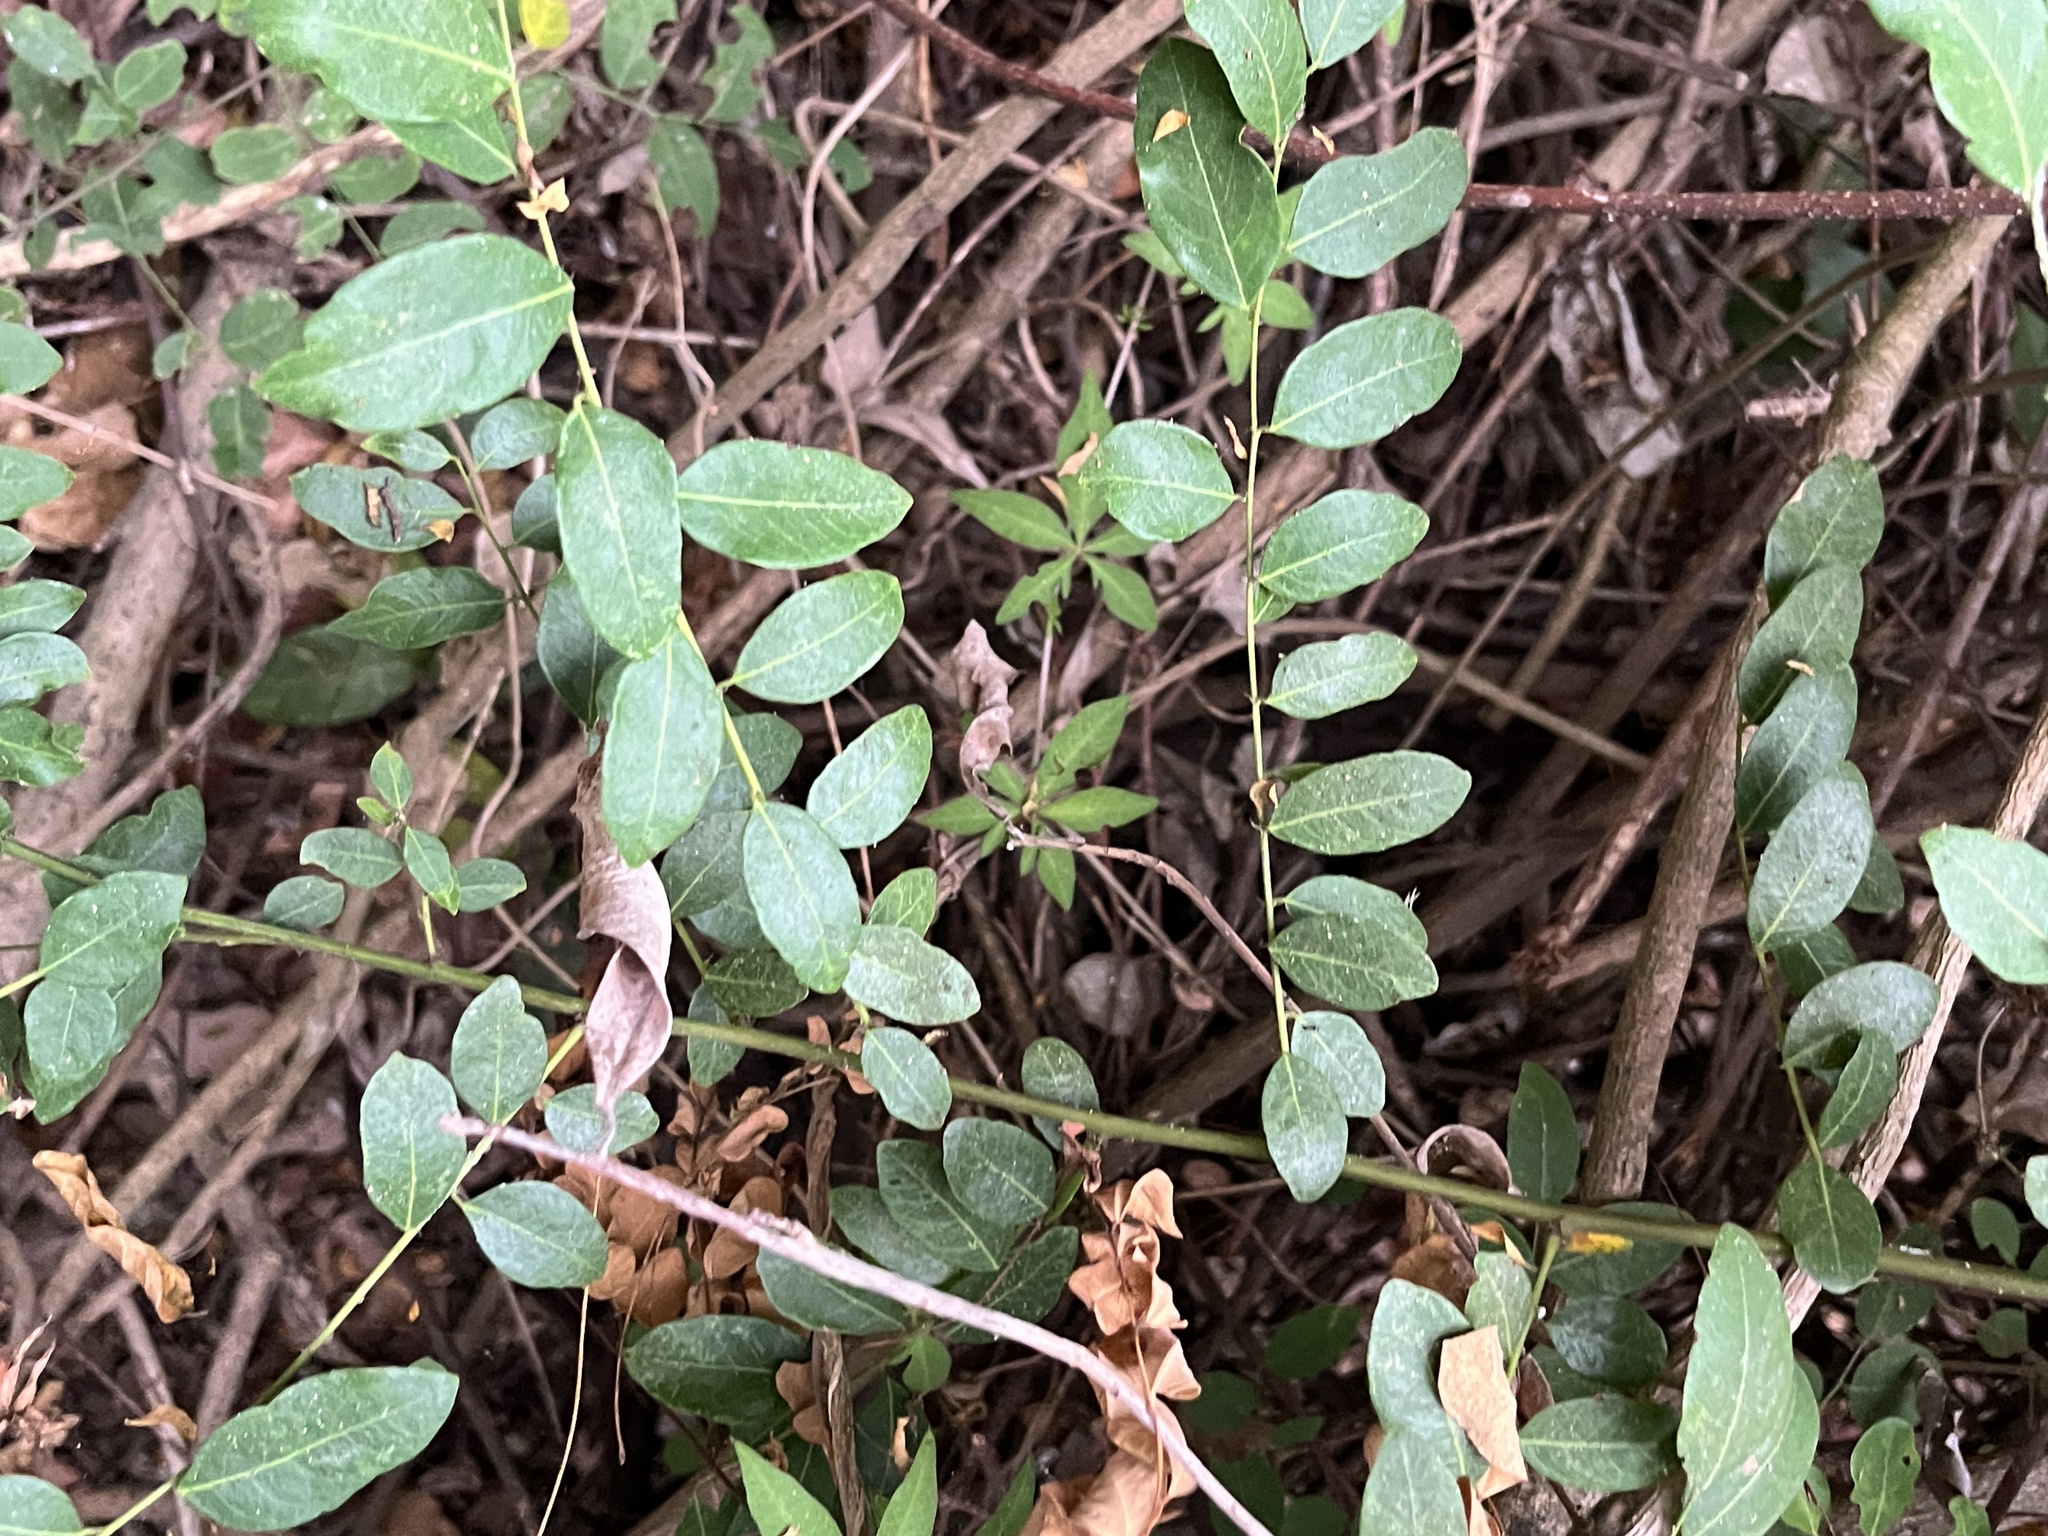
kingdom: Plantae
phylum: Tracheophyta
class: Magnoliopsida
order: Malpighiales
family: Phyllanthaceae
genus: Phyllanthus
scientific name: Phyllanthus reticulatus
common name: Potato bush
